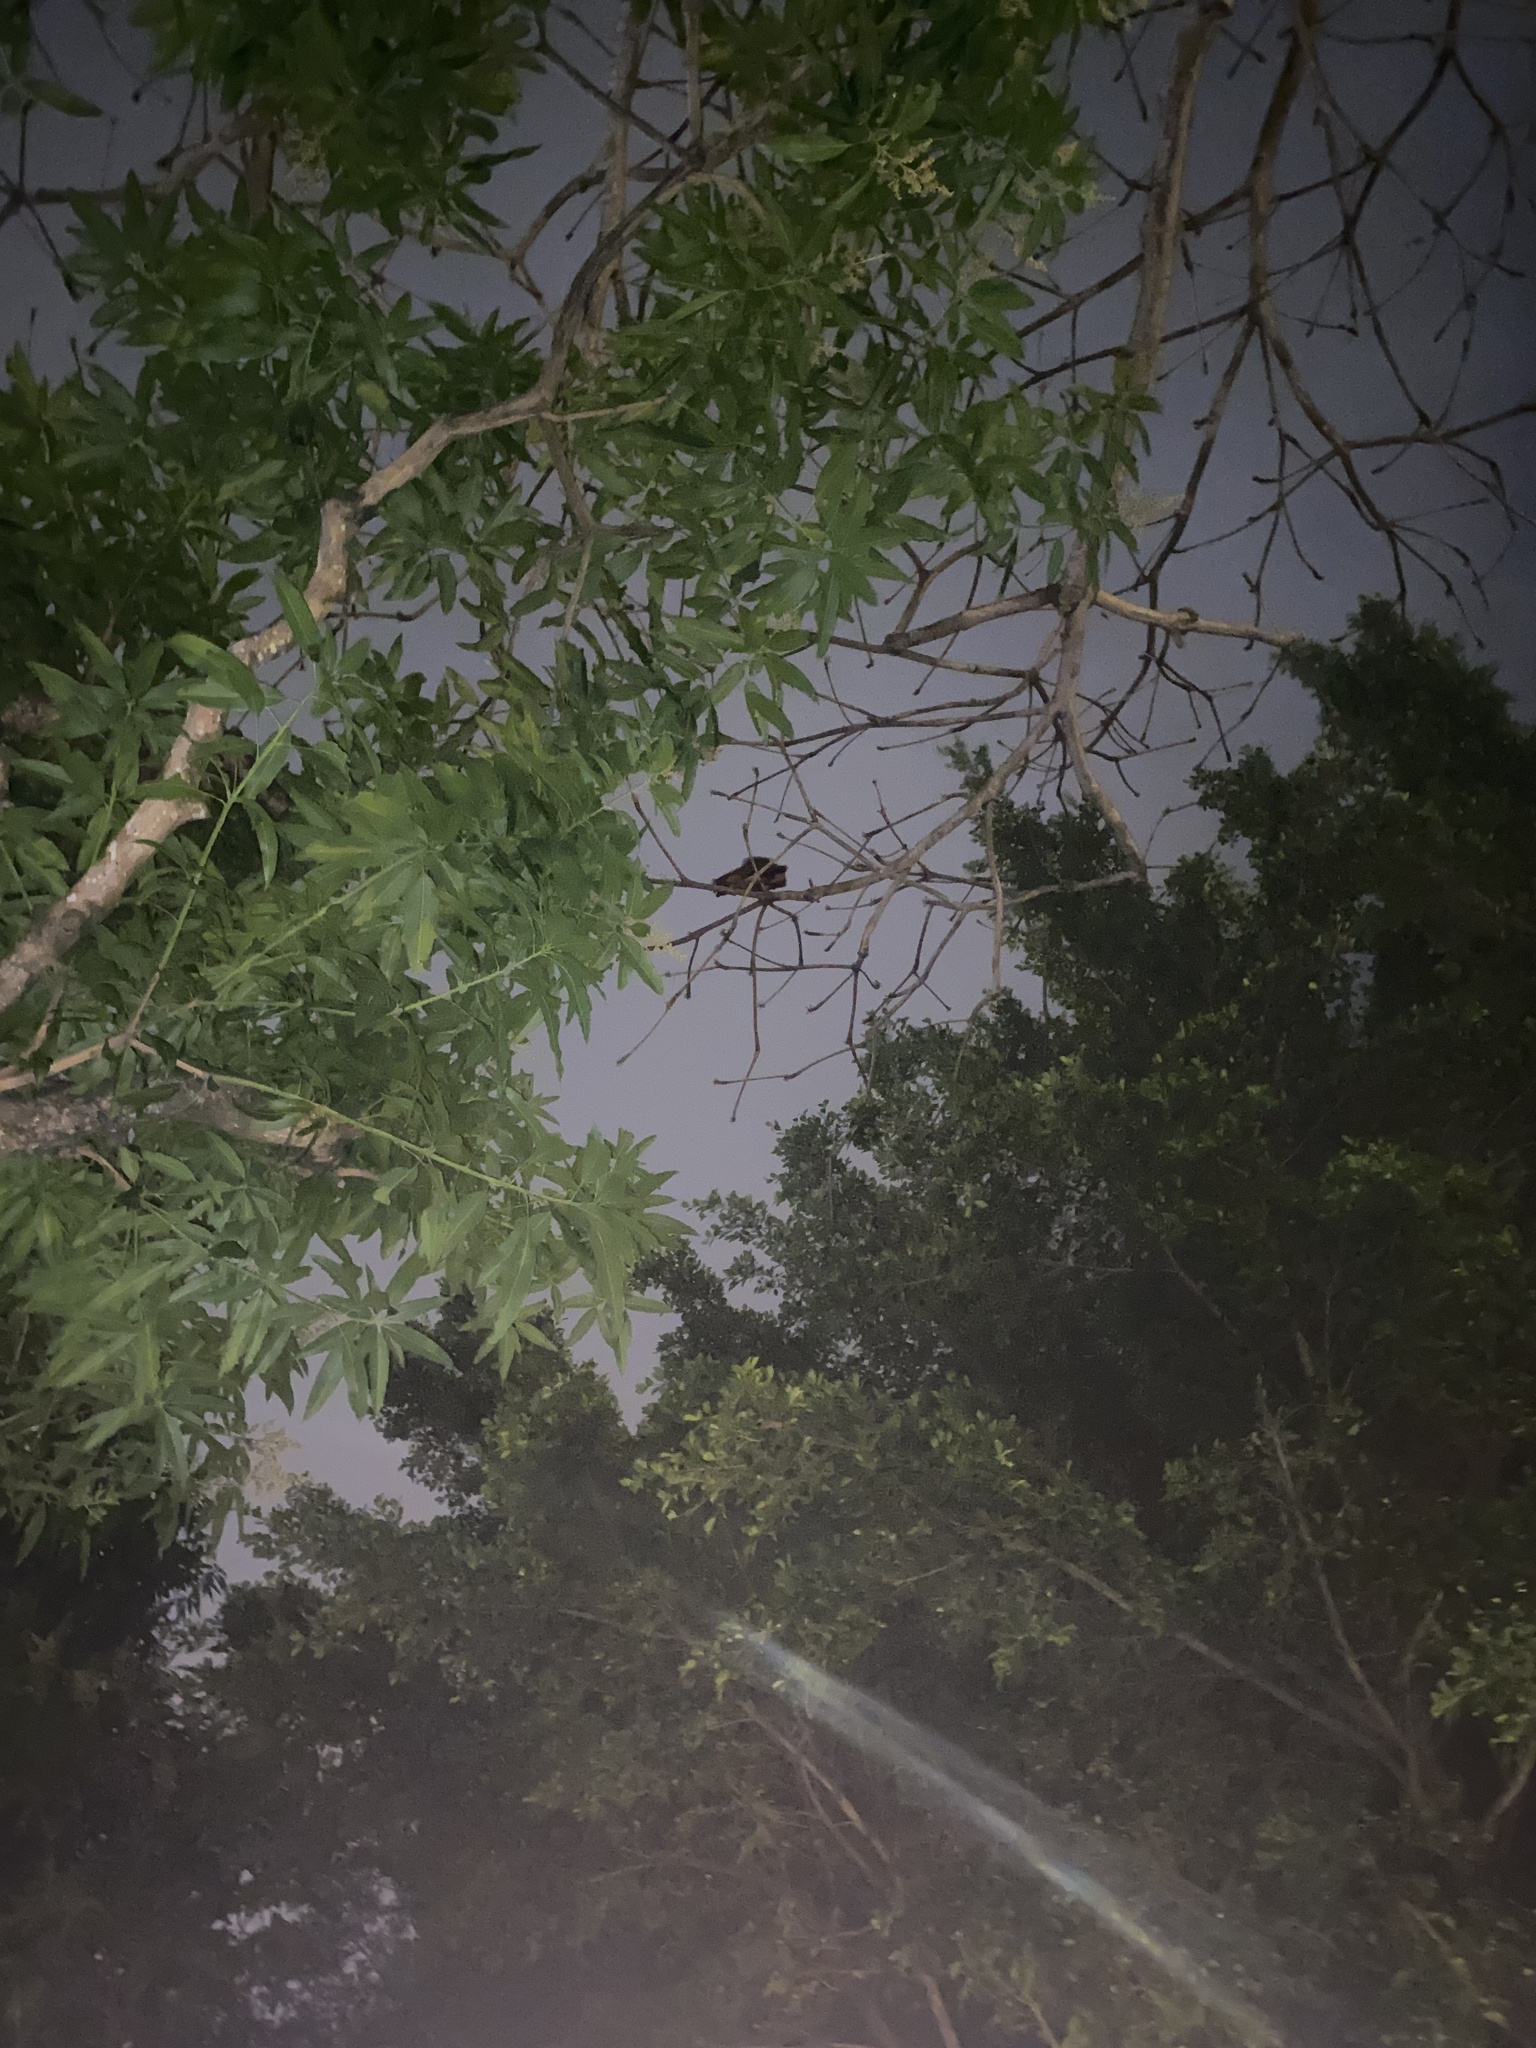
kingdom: Animalia
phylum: Chordata
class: Mammalia
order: Rodentia
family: Sciuridae
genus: Petaurista
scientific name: Petaurista
